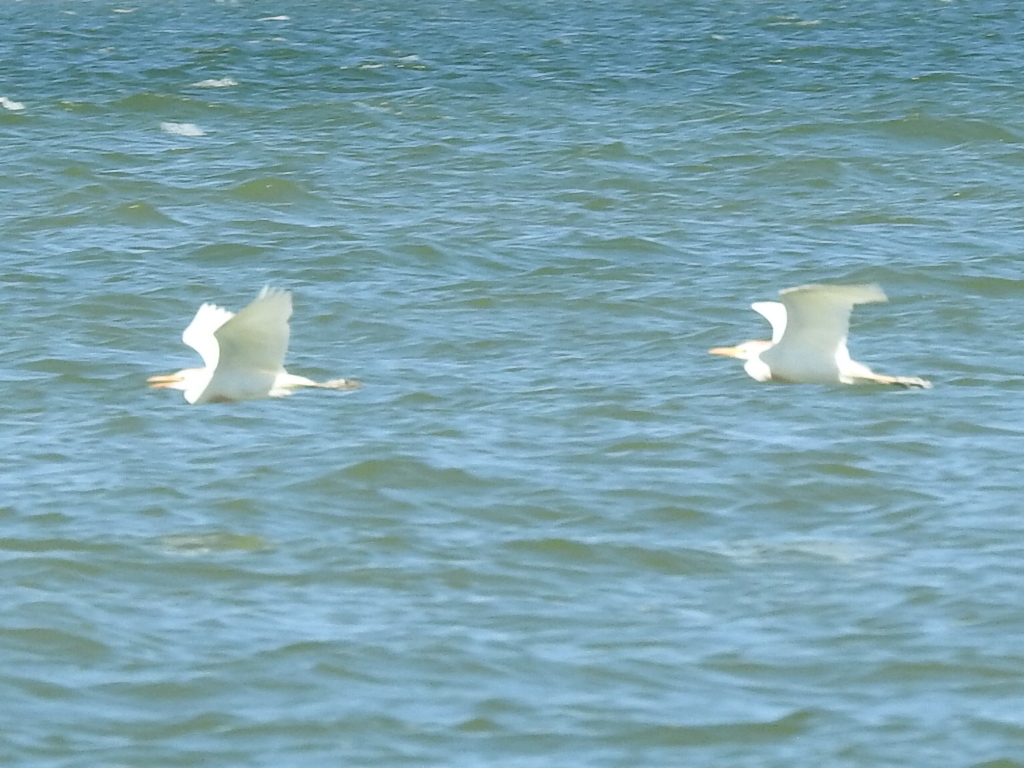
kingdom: Animalia
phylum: Chordata
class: Aves
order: Pelecaniformes
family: Ardeidae
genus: Bubulcus
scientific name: Bubulcus ibis
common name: Cattle egret
